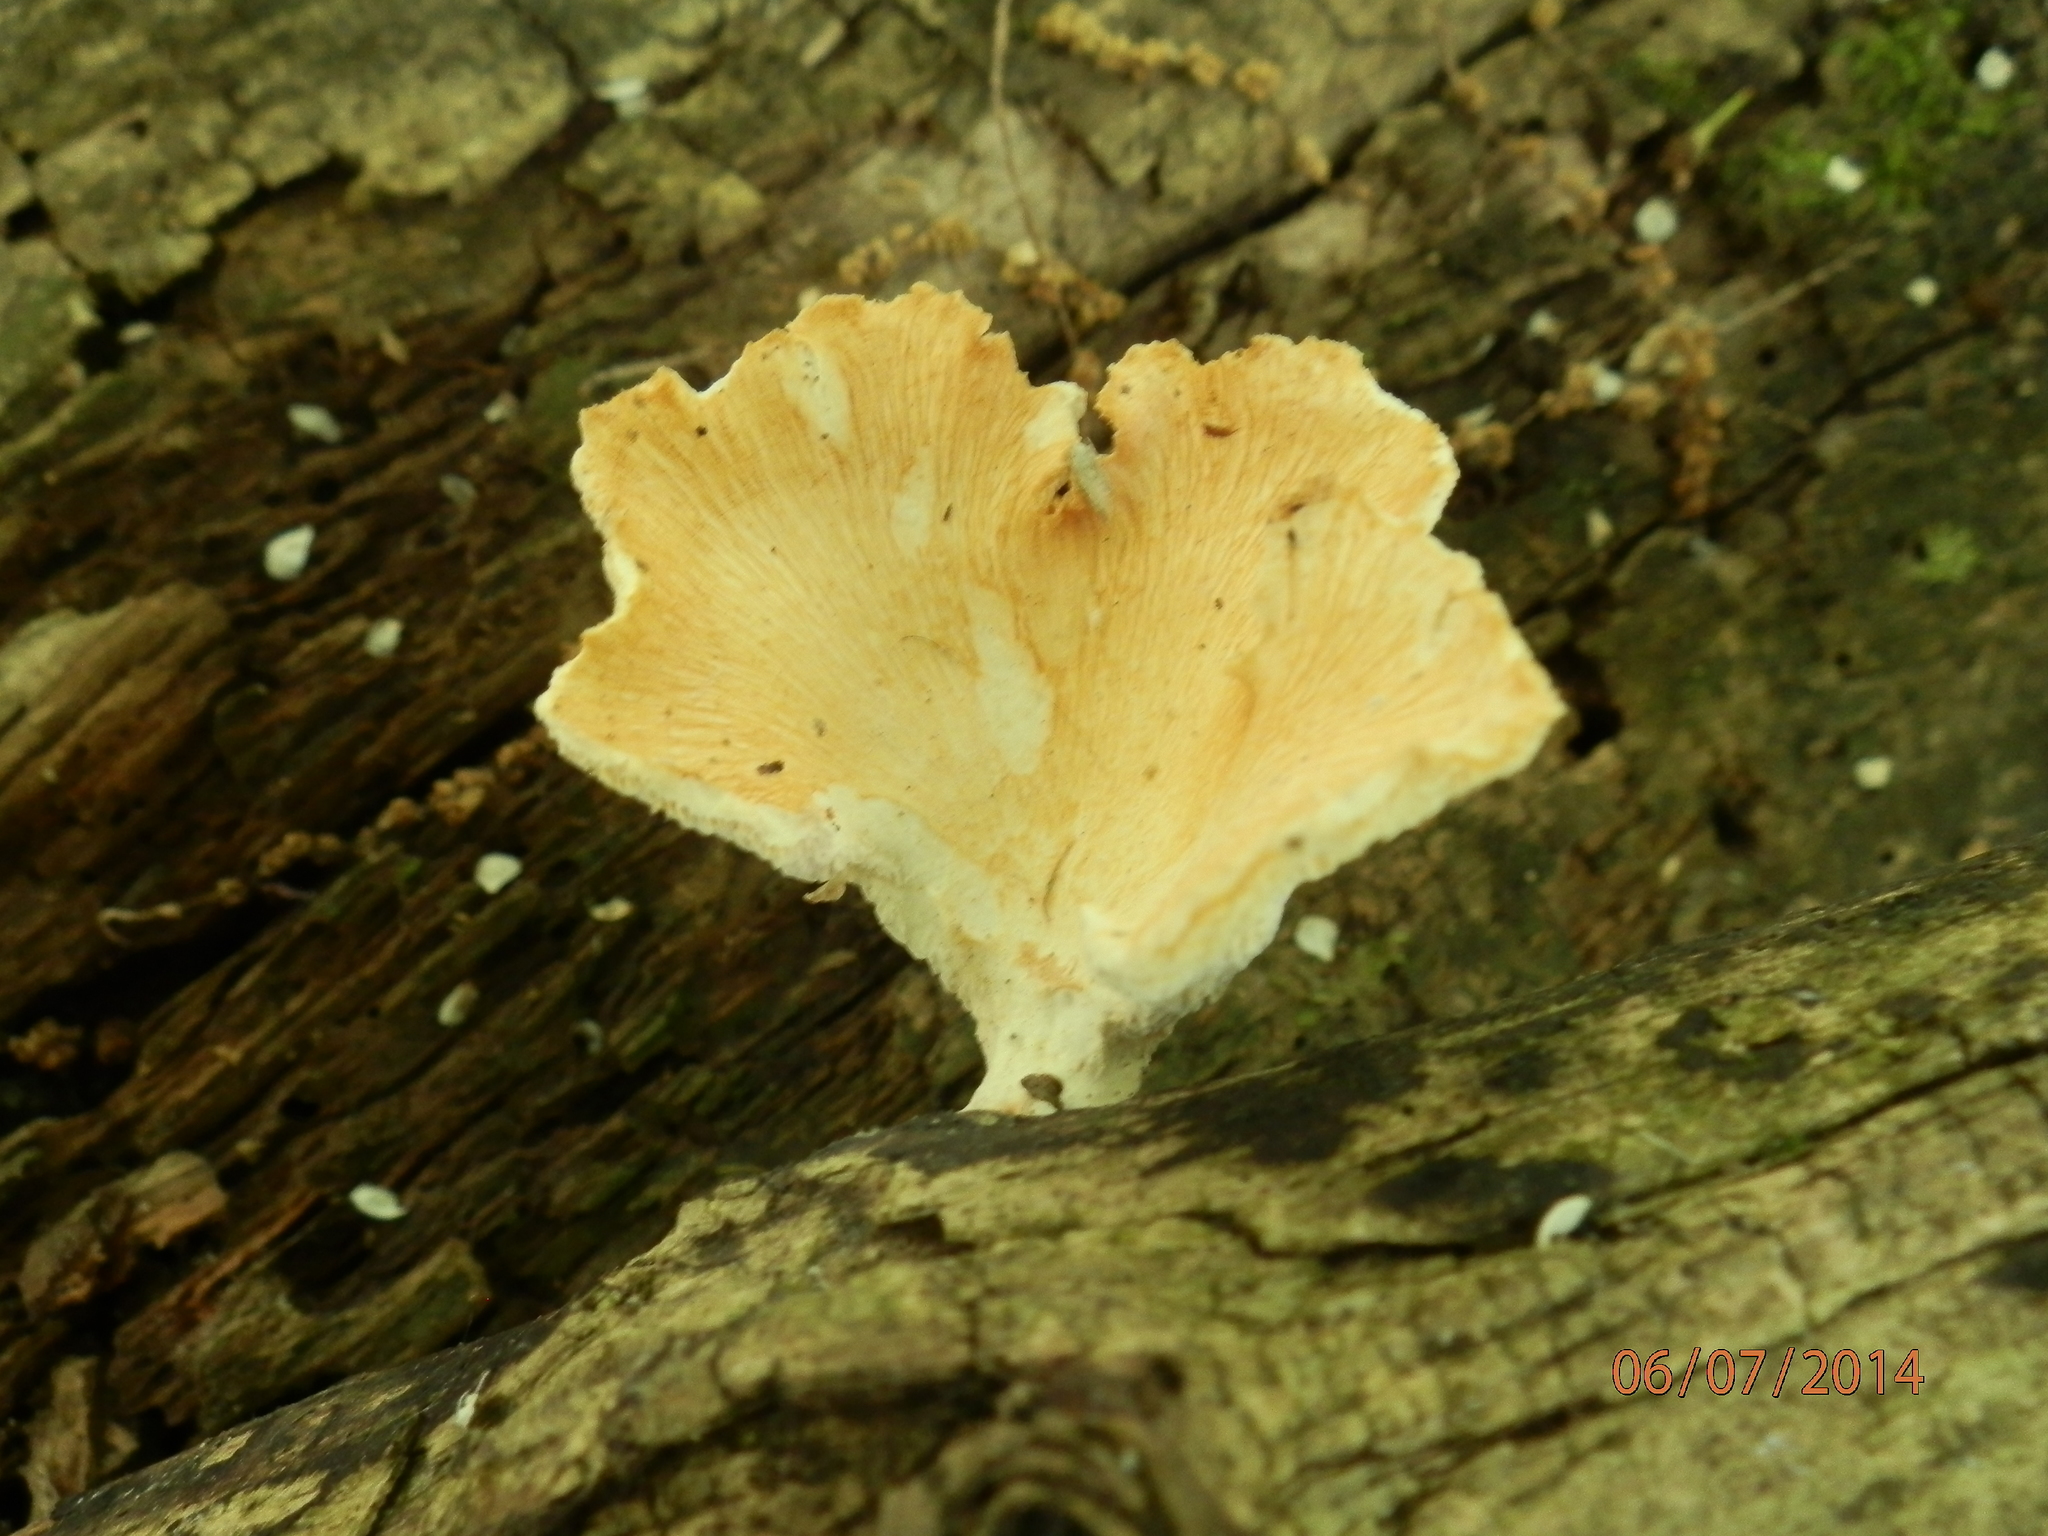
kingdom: Fungi
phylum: Basidiomycota
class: Agaricomycetes
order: Polyporales
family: Polyporaceae
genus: Neofavolus
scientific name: Neofavolus alveolaris
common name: Hexagonal-pored polypore
